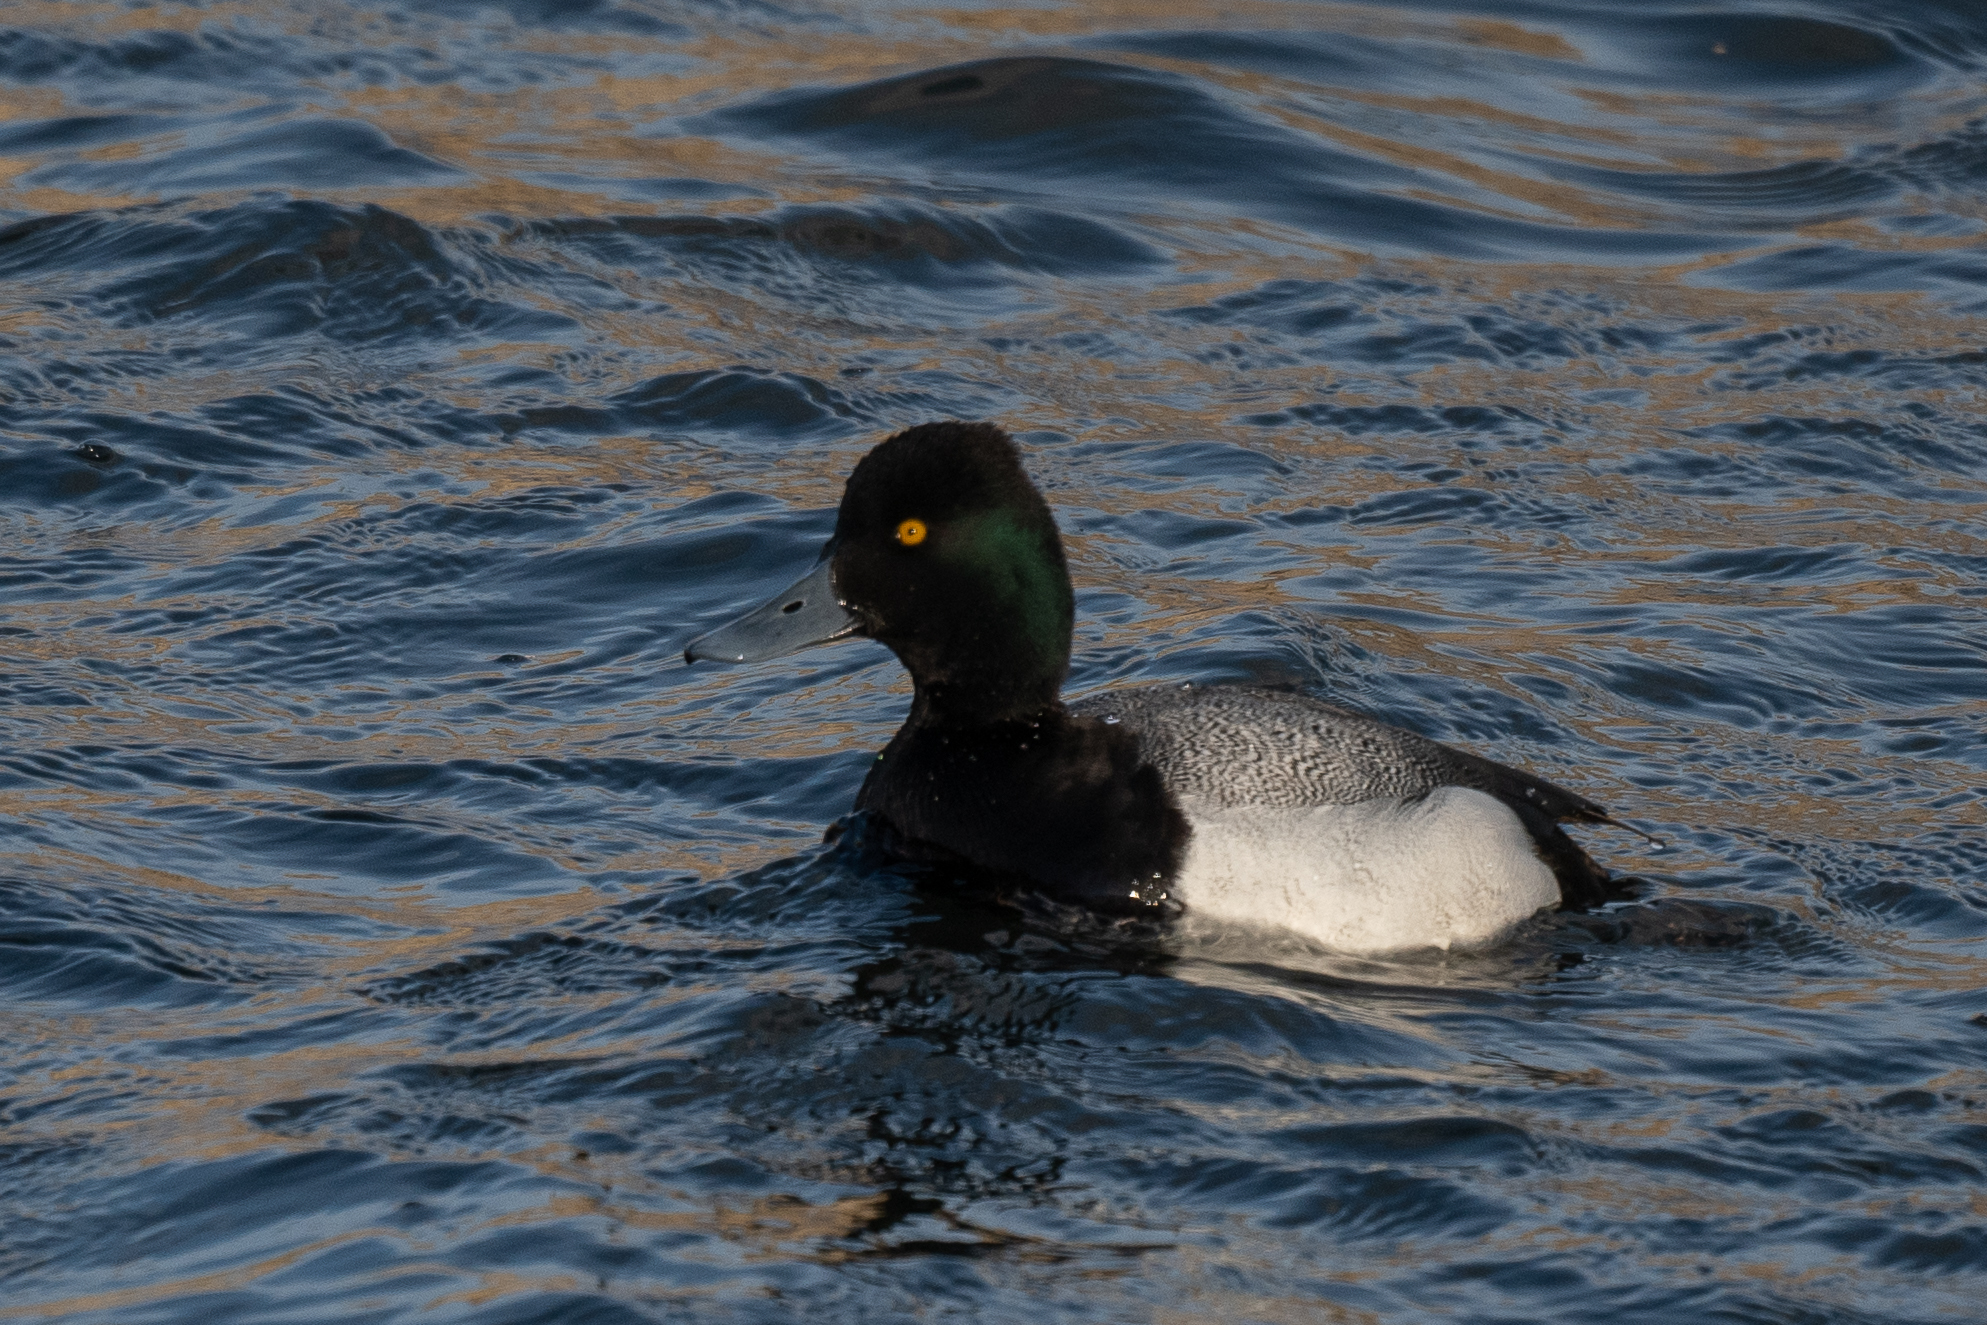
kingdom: Animalia
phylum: Chordata
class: Aves
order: Anseriformes
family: Anatidae
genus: Aythya
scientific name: Aythya affinis
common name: Lesser scaup
